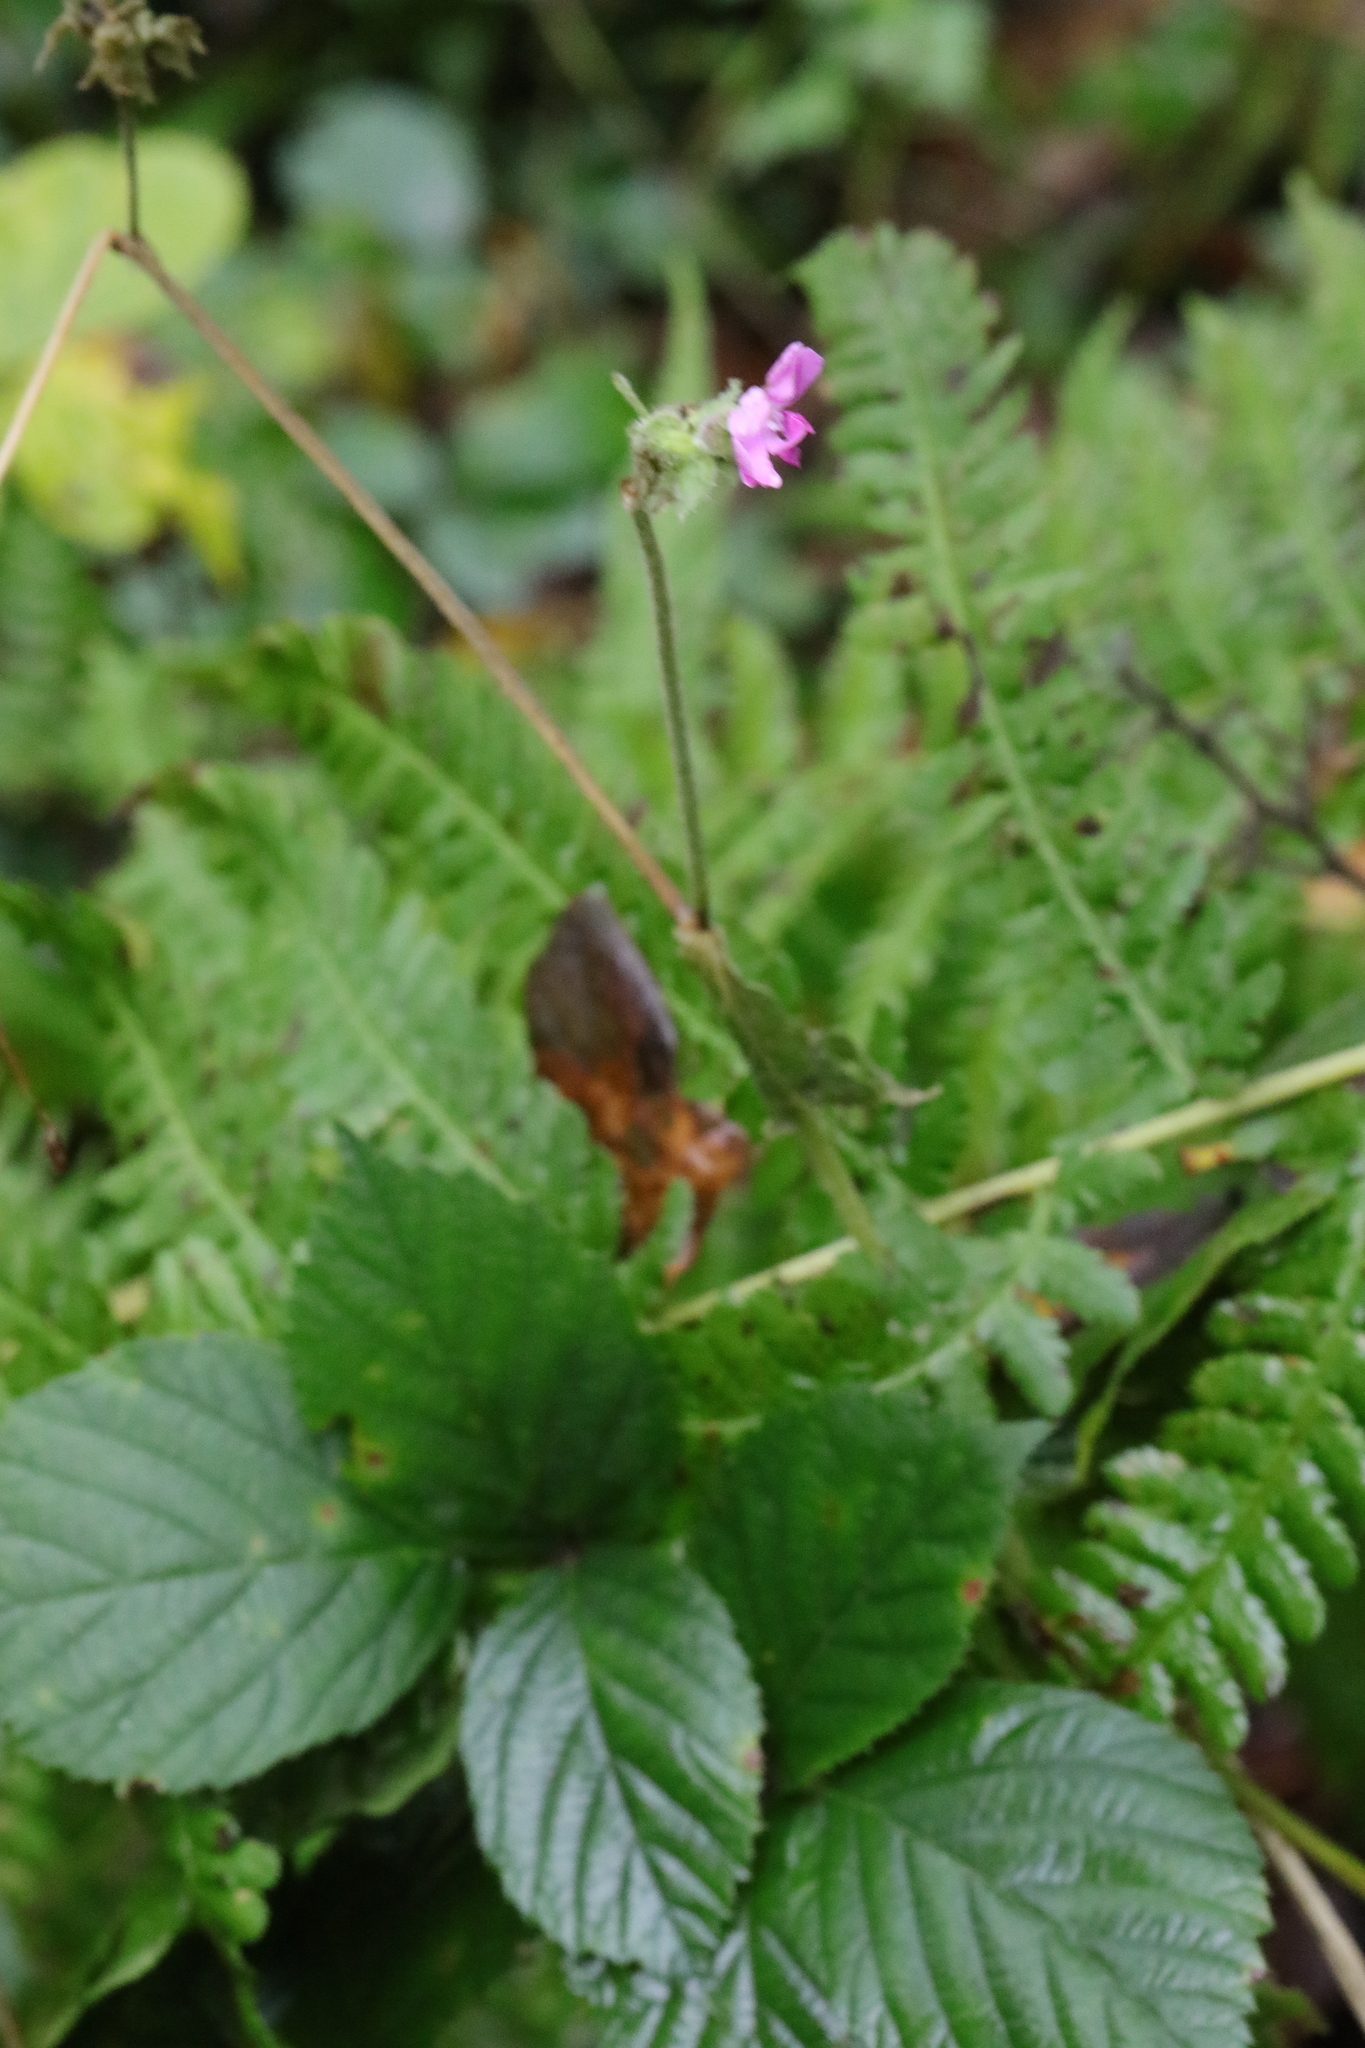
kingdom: Plantae
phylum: Tracheophyta
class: Magnoliopsida
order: Caryophyllales
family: Caryophyllaceae
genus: Silene
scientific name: Silene dioica
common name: Red campion
